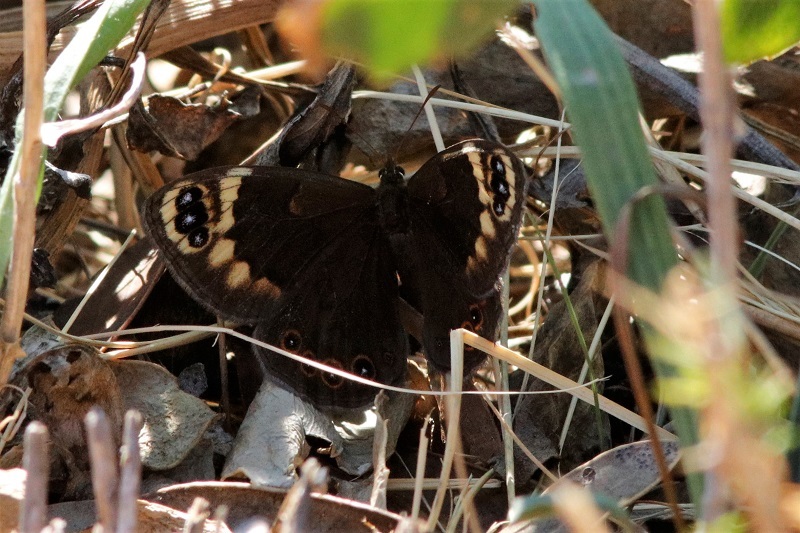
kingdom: Animalia
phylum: Arthropoda
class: Insecta
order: Lepidoptera
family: Nymphalidae
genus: Dira
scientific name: Dira clytus
